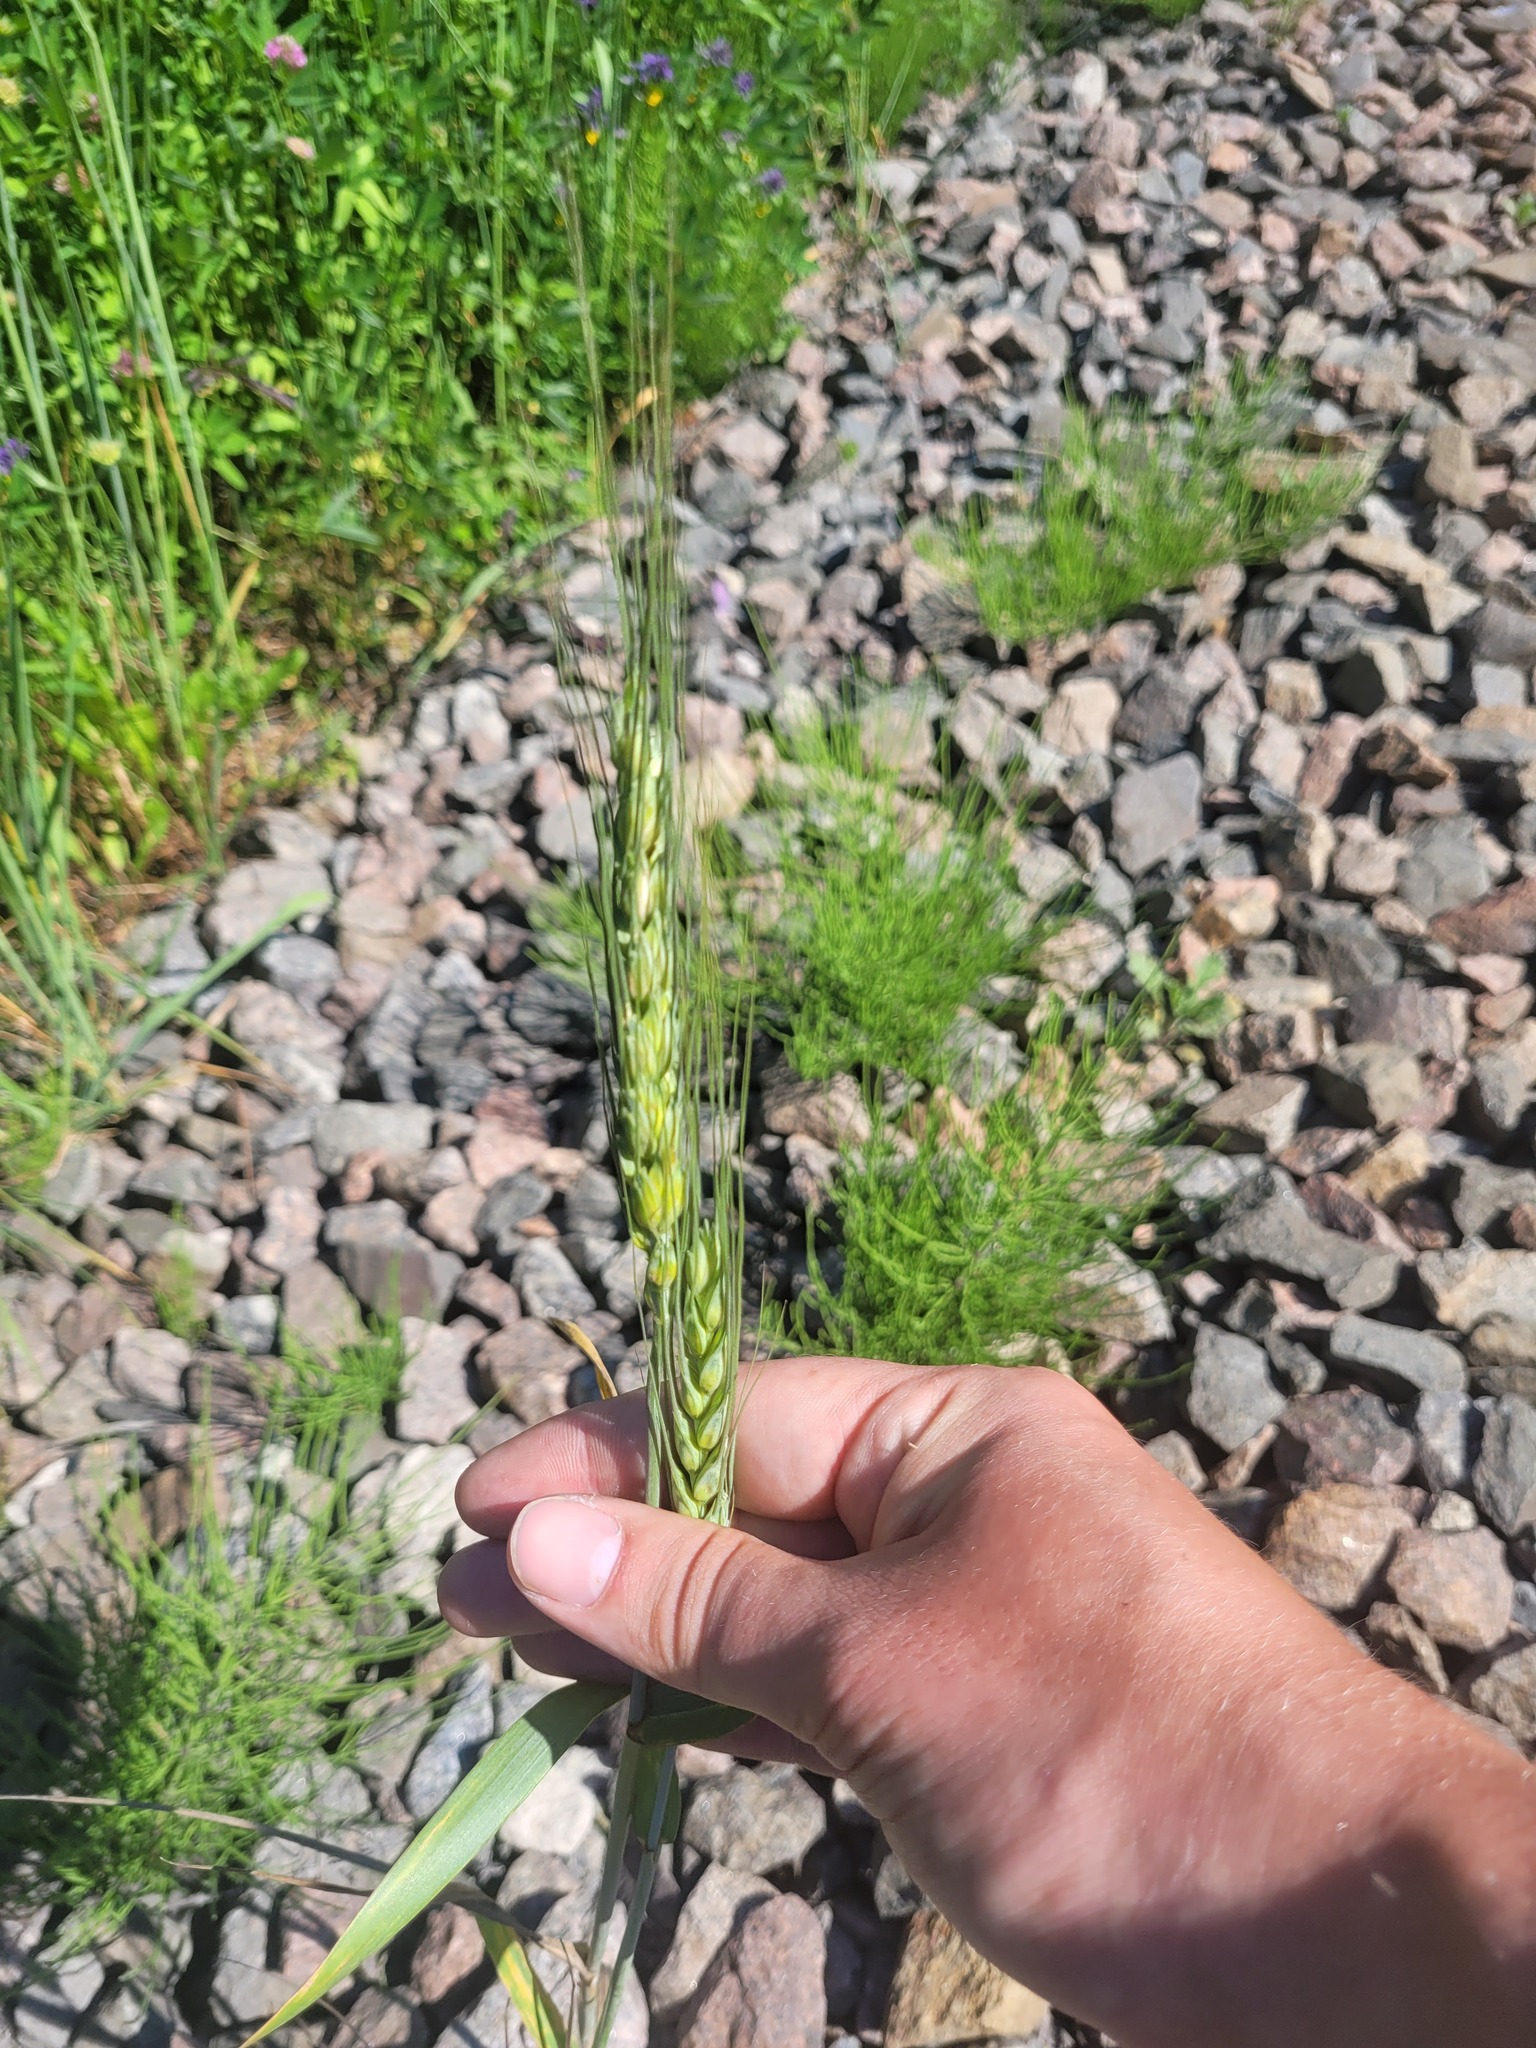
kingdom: Plantae
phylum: Tracheophyta
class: Liliopsida
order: Poales
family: Poaceae
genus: Triticum
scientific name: Triticum aestivum
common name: Common wheat
